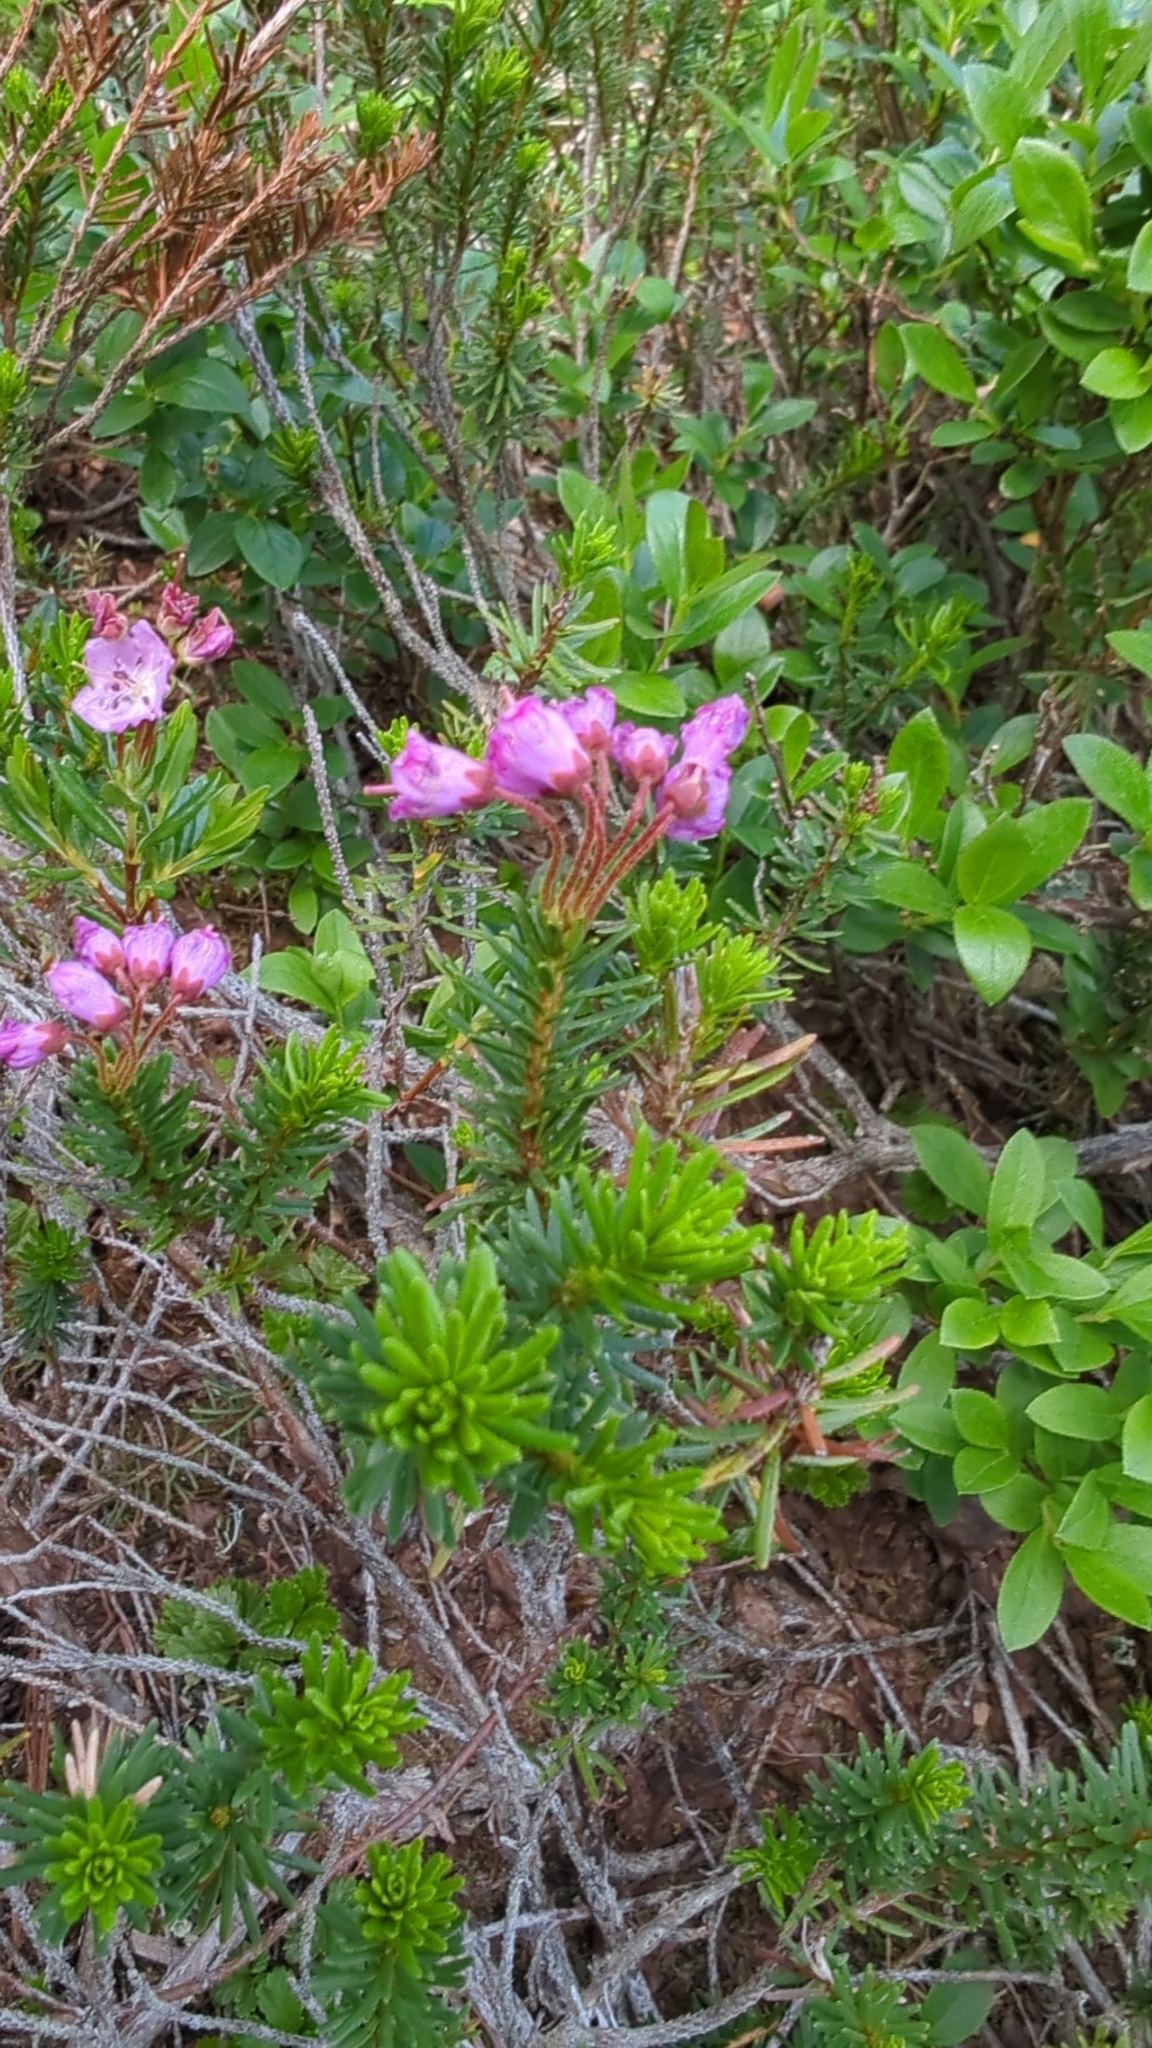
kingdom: Plantae
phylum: Tracheophyta
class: Magnoliopsida
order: Ericales
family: Ericaceae
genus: Phyllodoce
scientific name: Phyllodoce empetriformis
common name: Pink mountain heather
